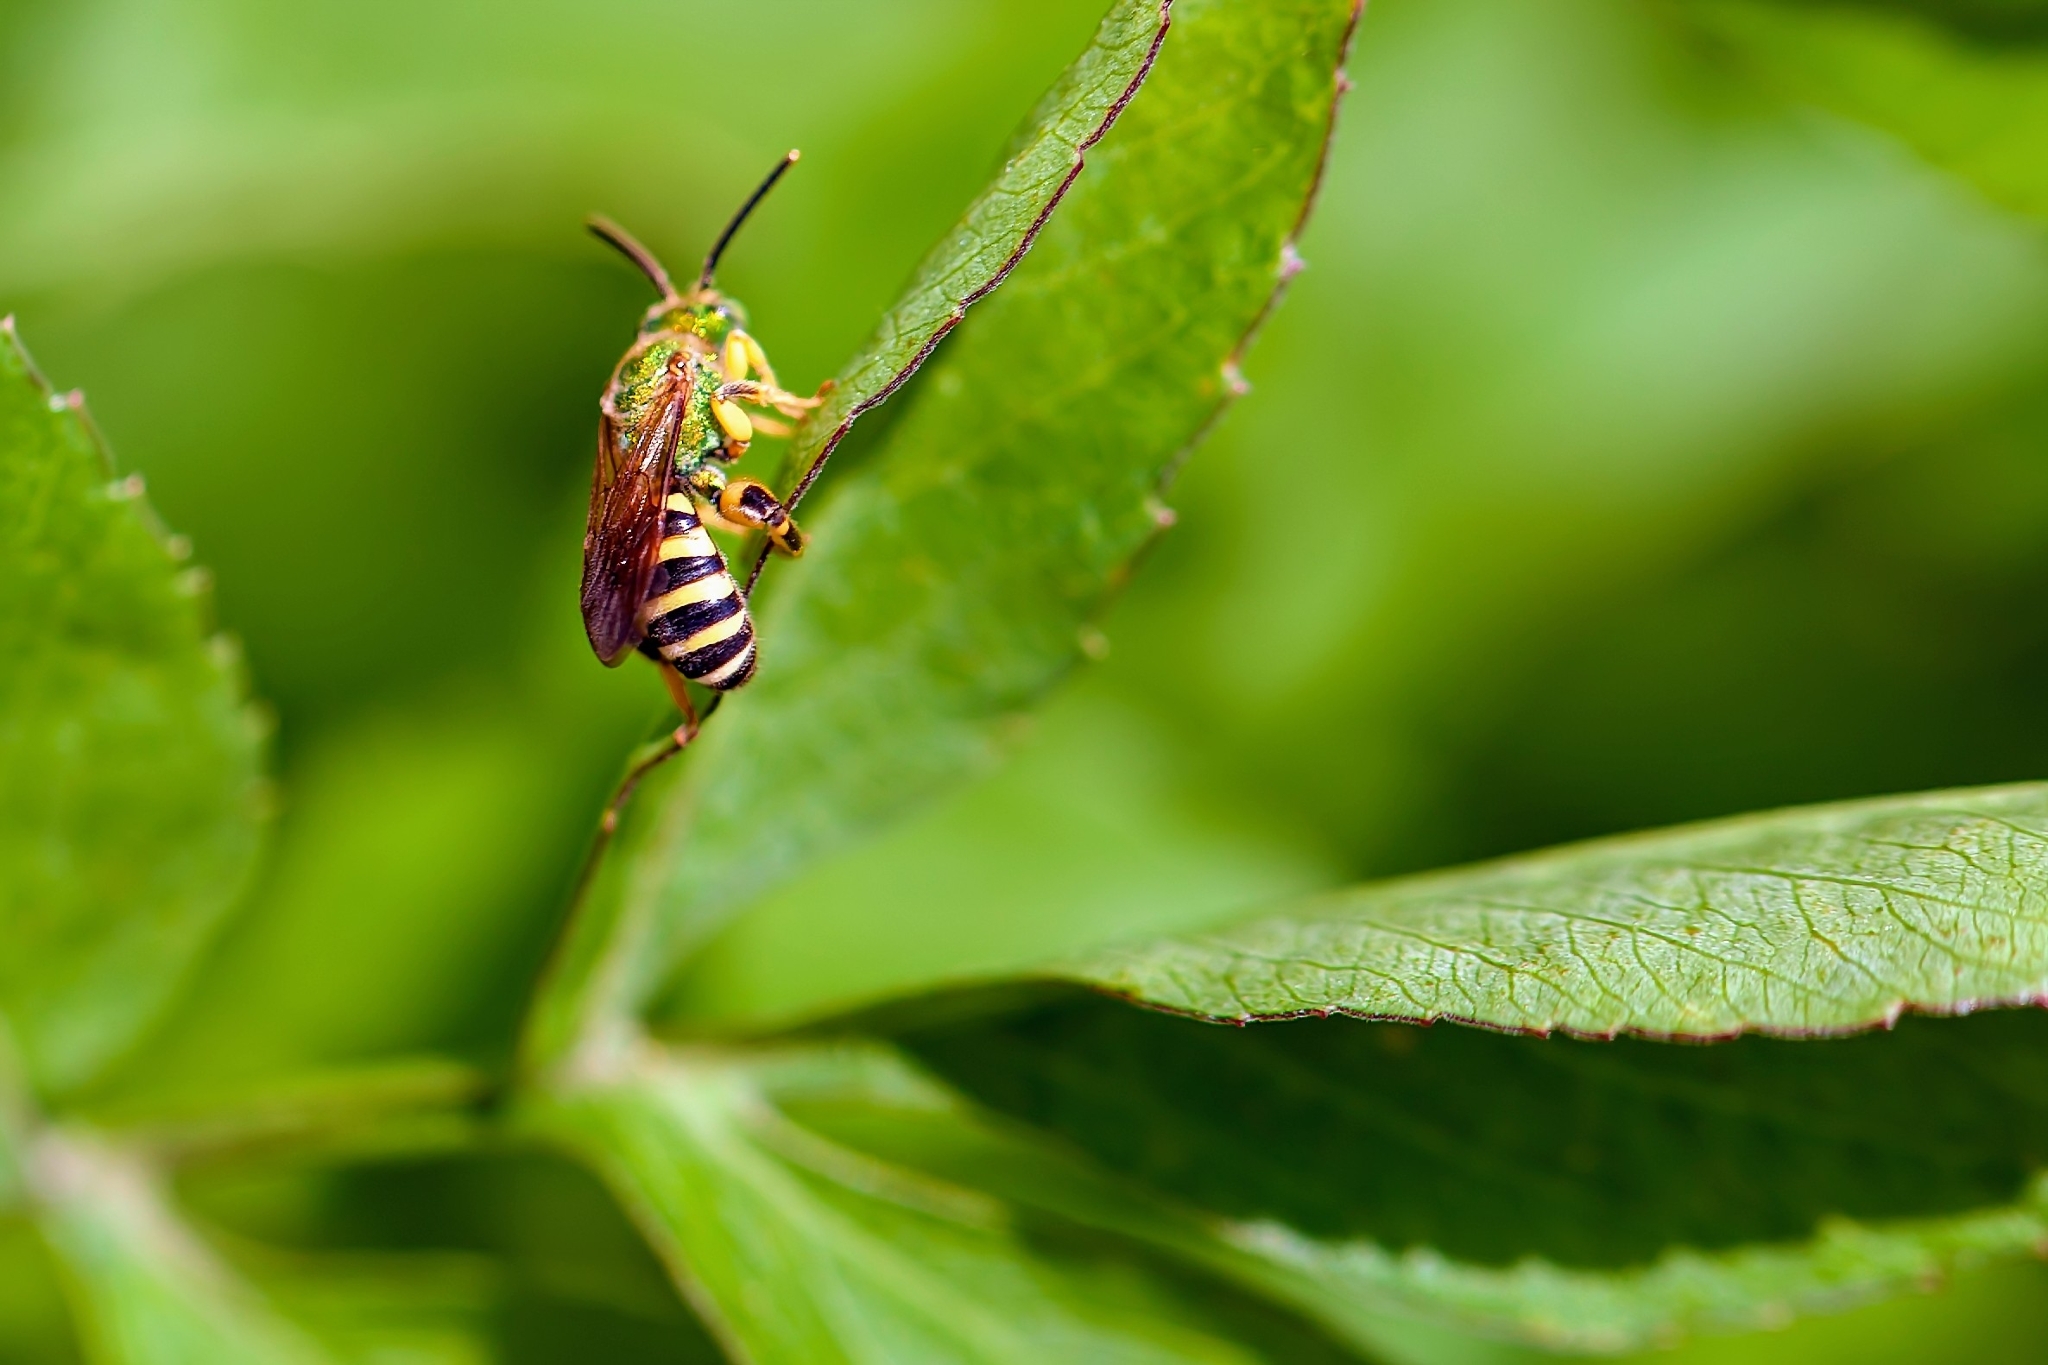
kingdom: Animalia
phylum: Arthropoda
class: Insecta
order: Hymenoptera
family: Halictidae
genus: Agapostemon
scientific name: Agapostemon splendens
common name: Brown-winged striped sweat bee
